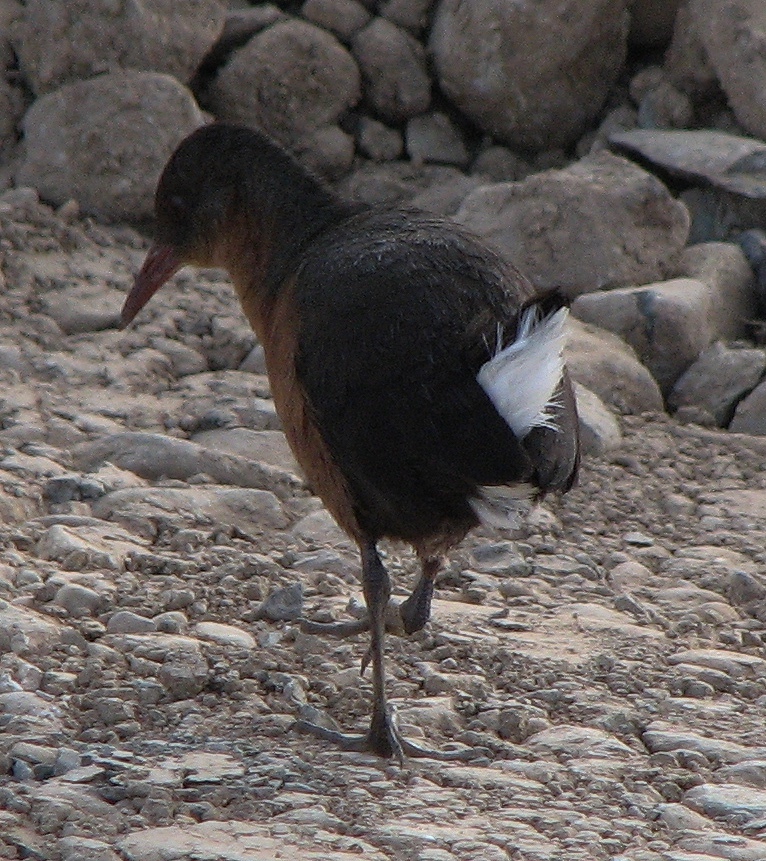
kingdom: Animalia
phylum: Chordata
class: Aves
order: Gruiformes
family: Rallidae
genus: Rougetius
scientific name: Rougetius rougetii
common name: Rouget's rail
